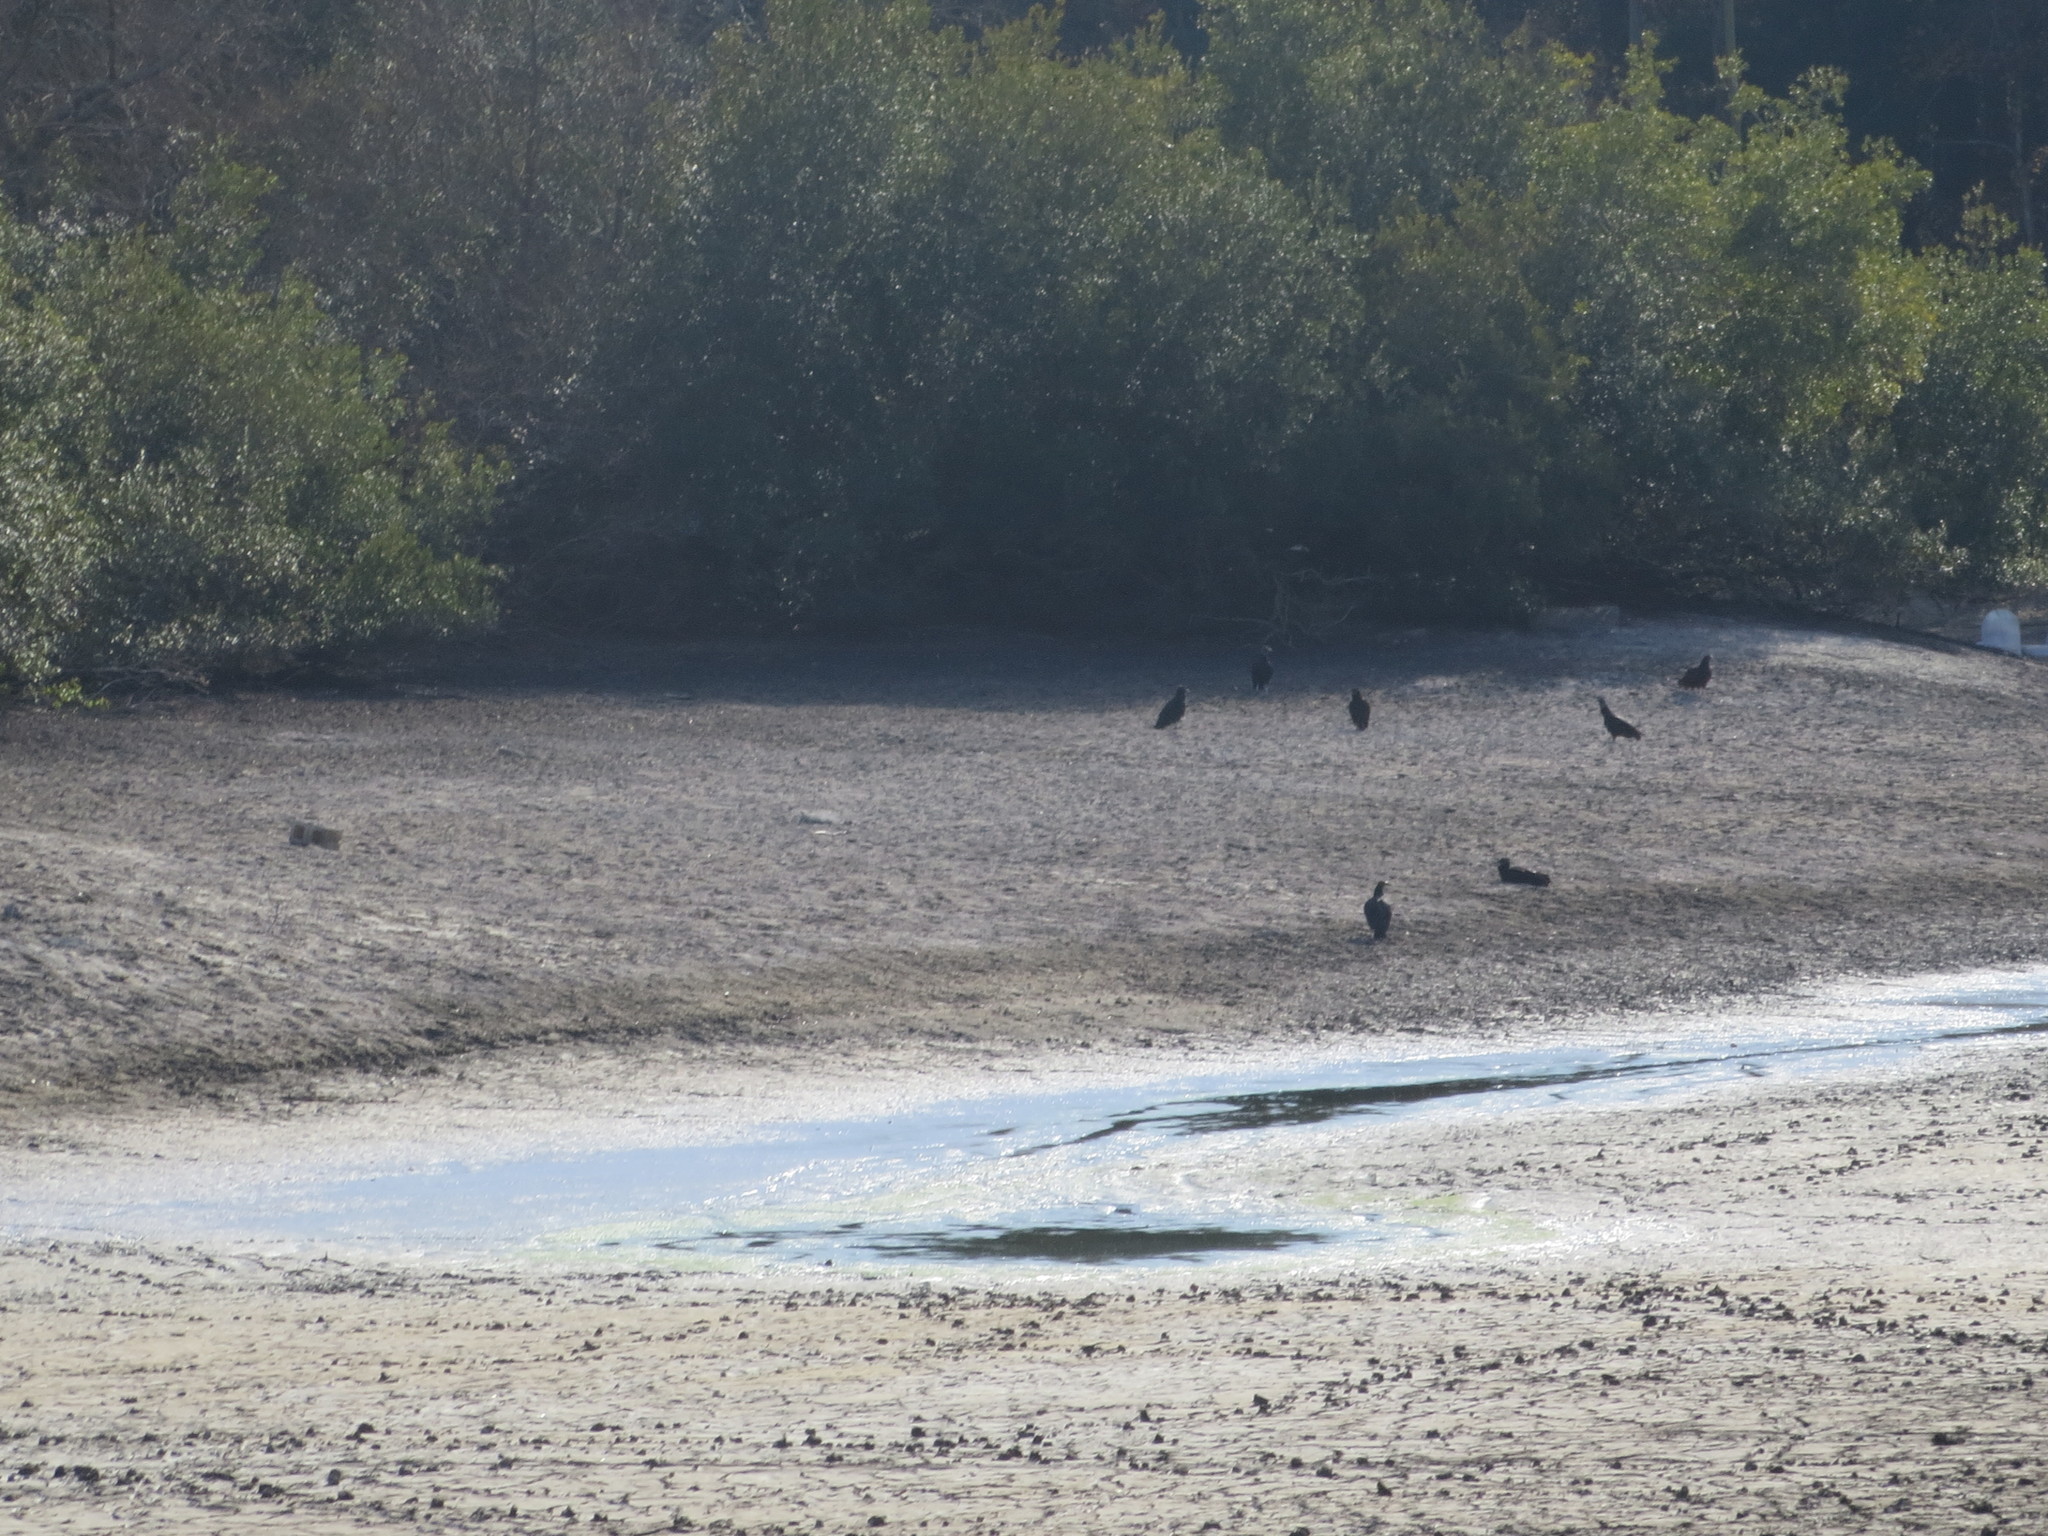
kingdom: Animalia
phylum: Chordata
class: Aves
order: Accipitriformes
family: Cathartidae
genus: Coragyps
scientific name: Coragyps atratus
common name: Black vulture
